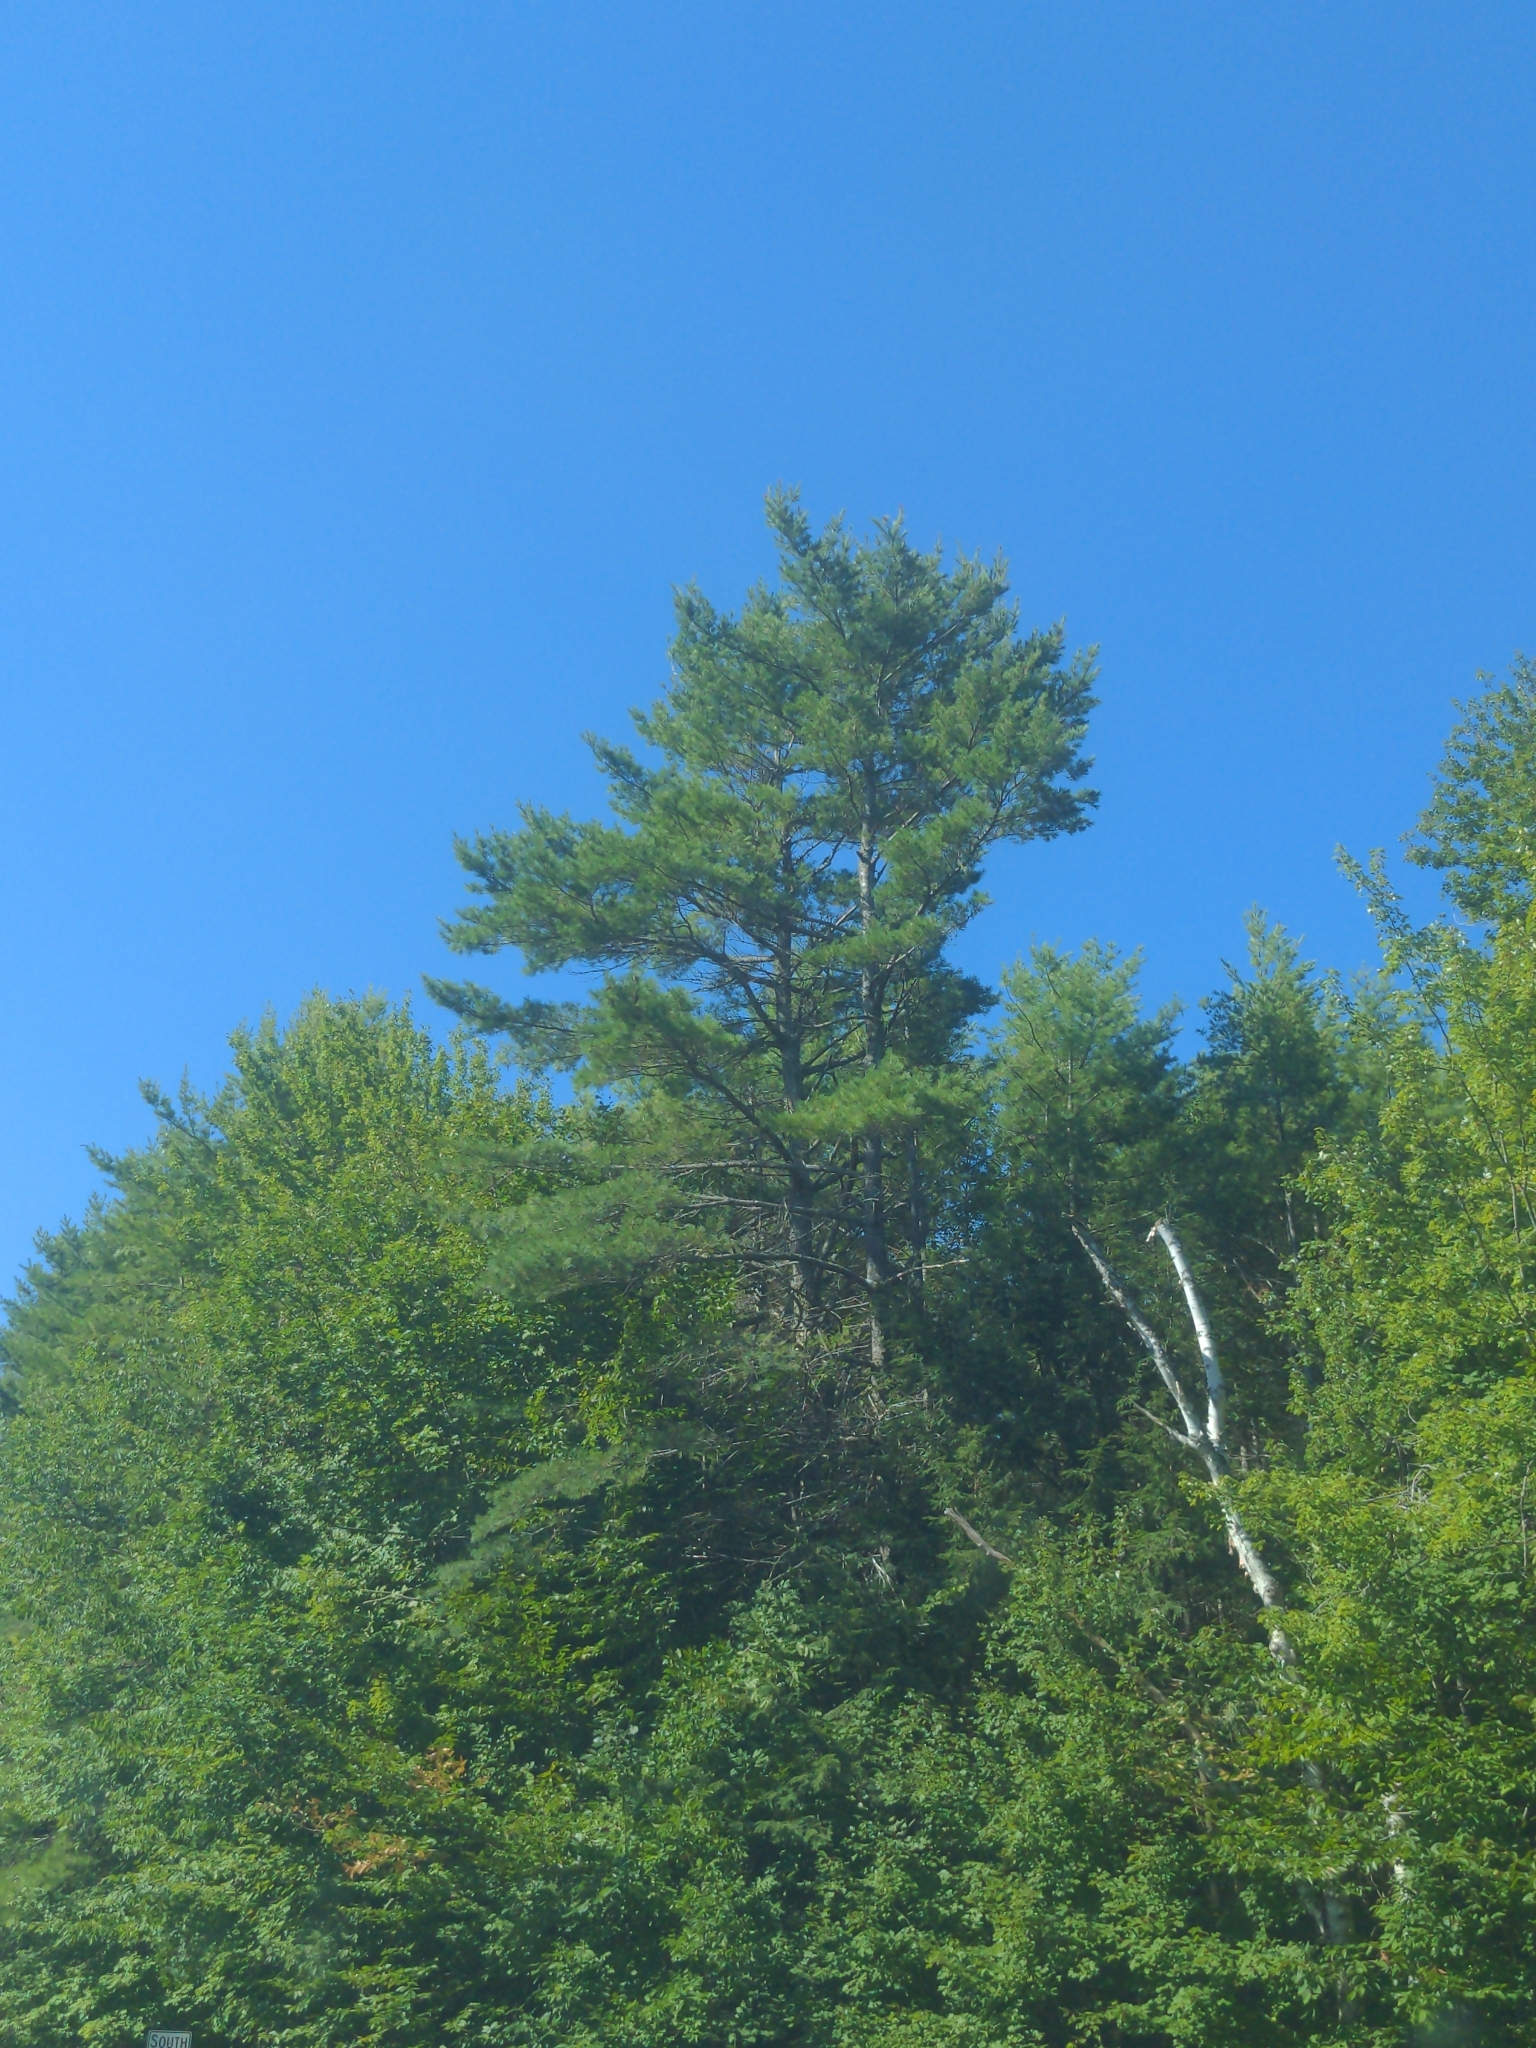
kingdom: Plantae
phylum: Tracheophyta
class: Pinopsida
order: Pinales
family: Pinaceae
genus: Pinus
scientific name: Pinus strobus
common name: Weymouth pine
